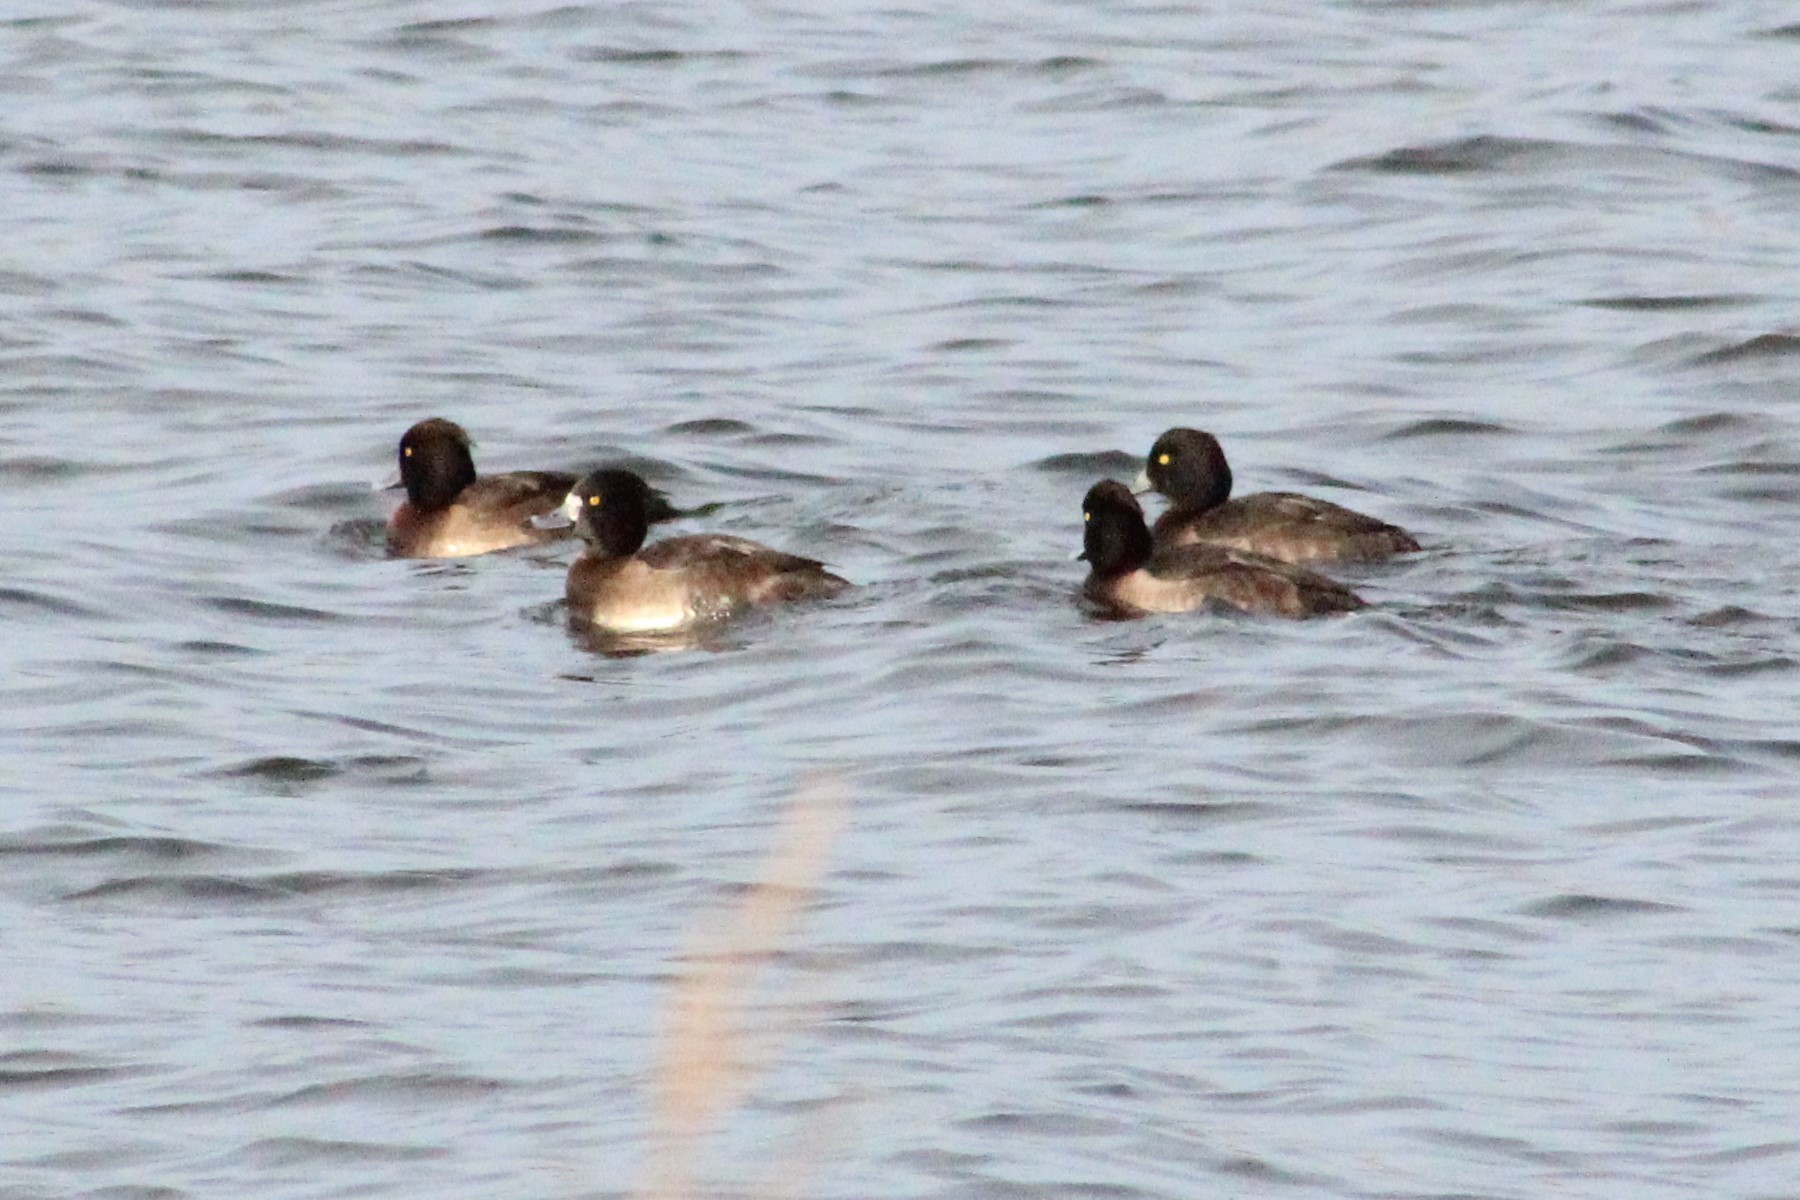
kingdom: Animalia
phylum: Chordata
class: Aves
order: Anseriformes
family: Anatidae
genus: Aythya
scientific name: Aythya fuligula
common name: Tufted duck
